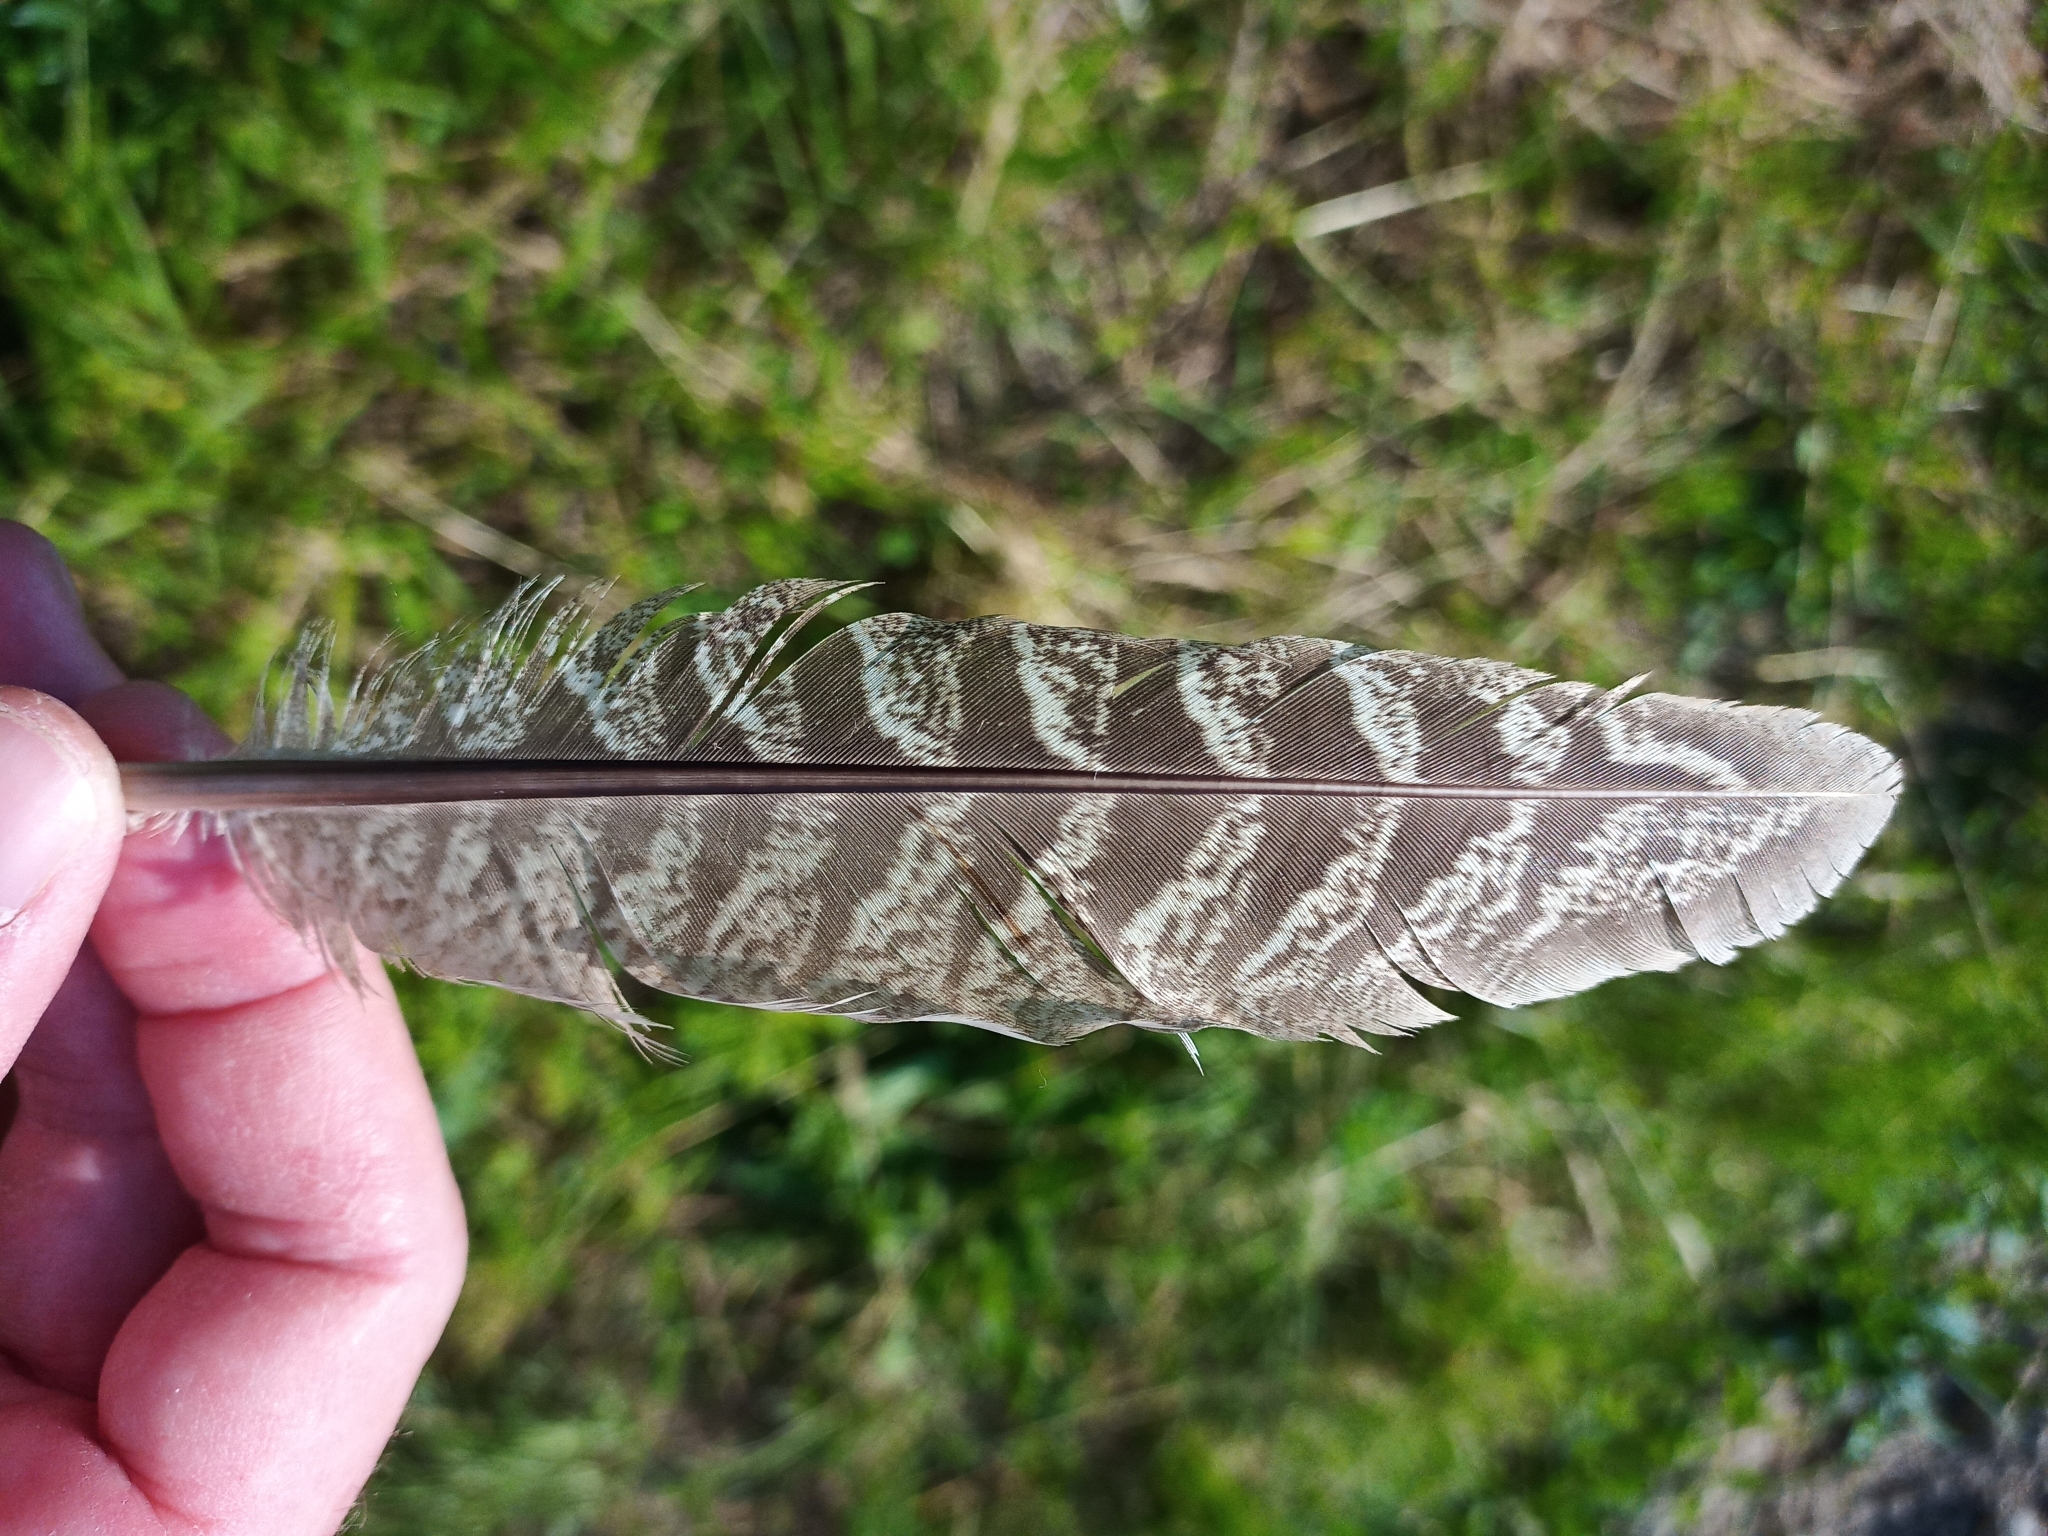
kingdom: Animalia
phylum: Chordata
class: Aves
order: Galliformes
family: Phasianidae
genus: Phasianus
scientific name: Phasianus colchicus
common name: Common pheasant
